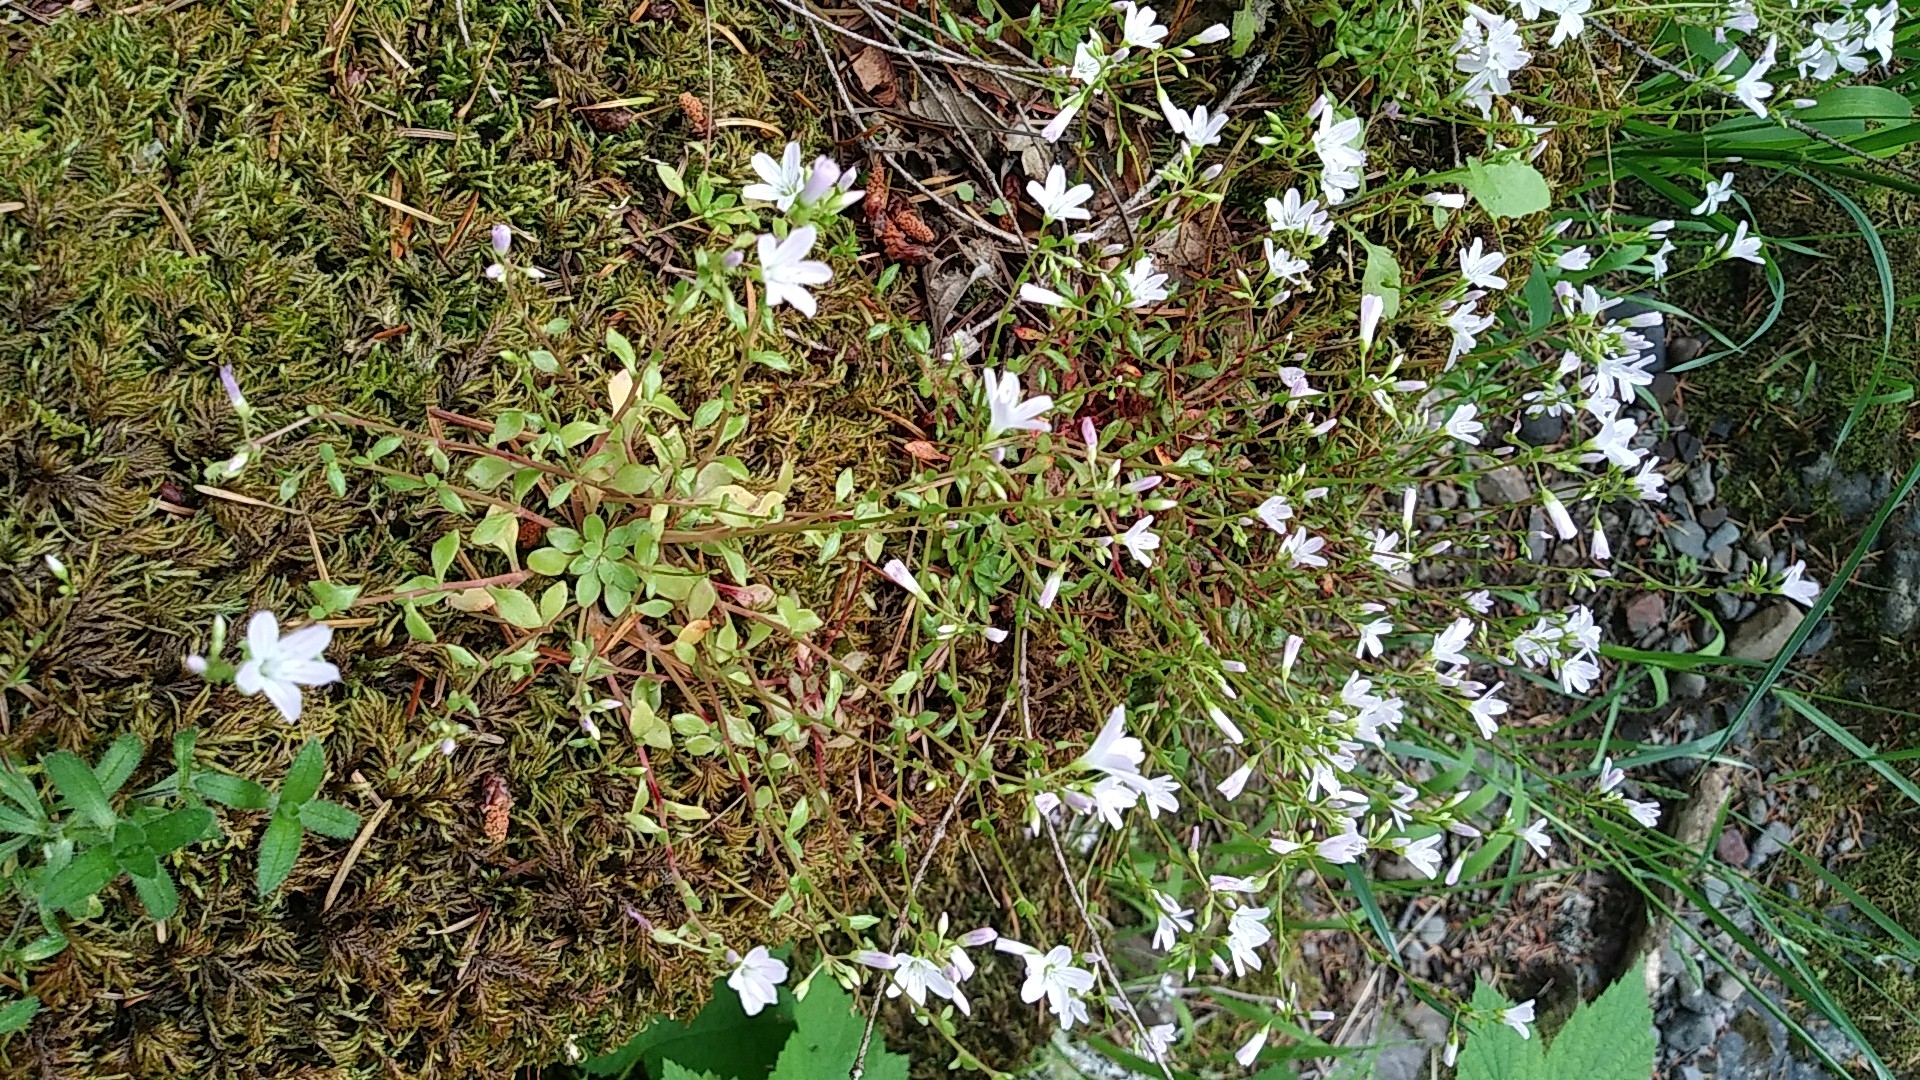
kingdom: Plantae
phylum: Tracheophyta
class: Magnoliopsida
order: Caryophyllales
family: Montiaceae
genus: Montia
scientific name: Montia parvifolia
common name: Small-leaved blinks
